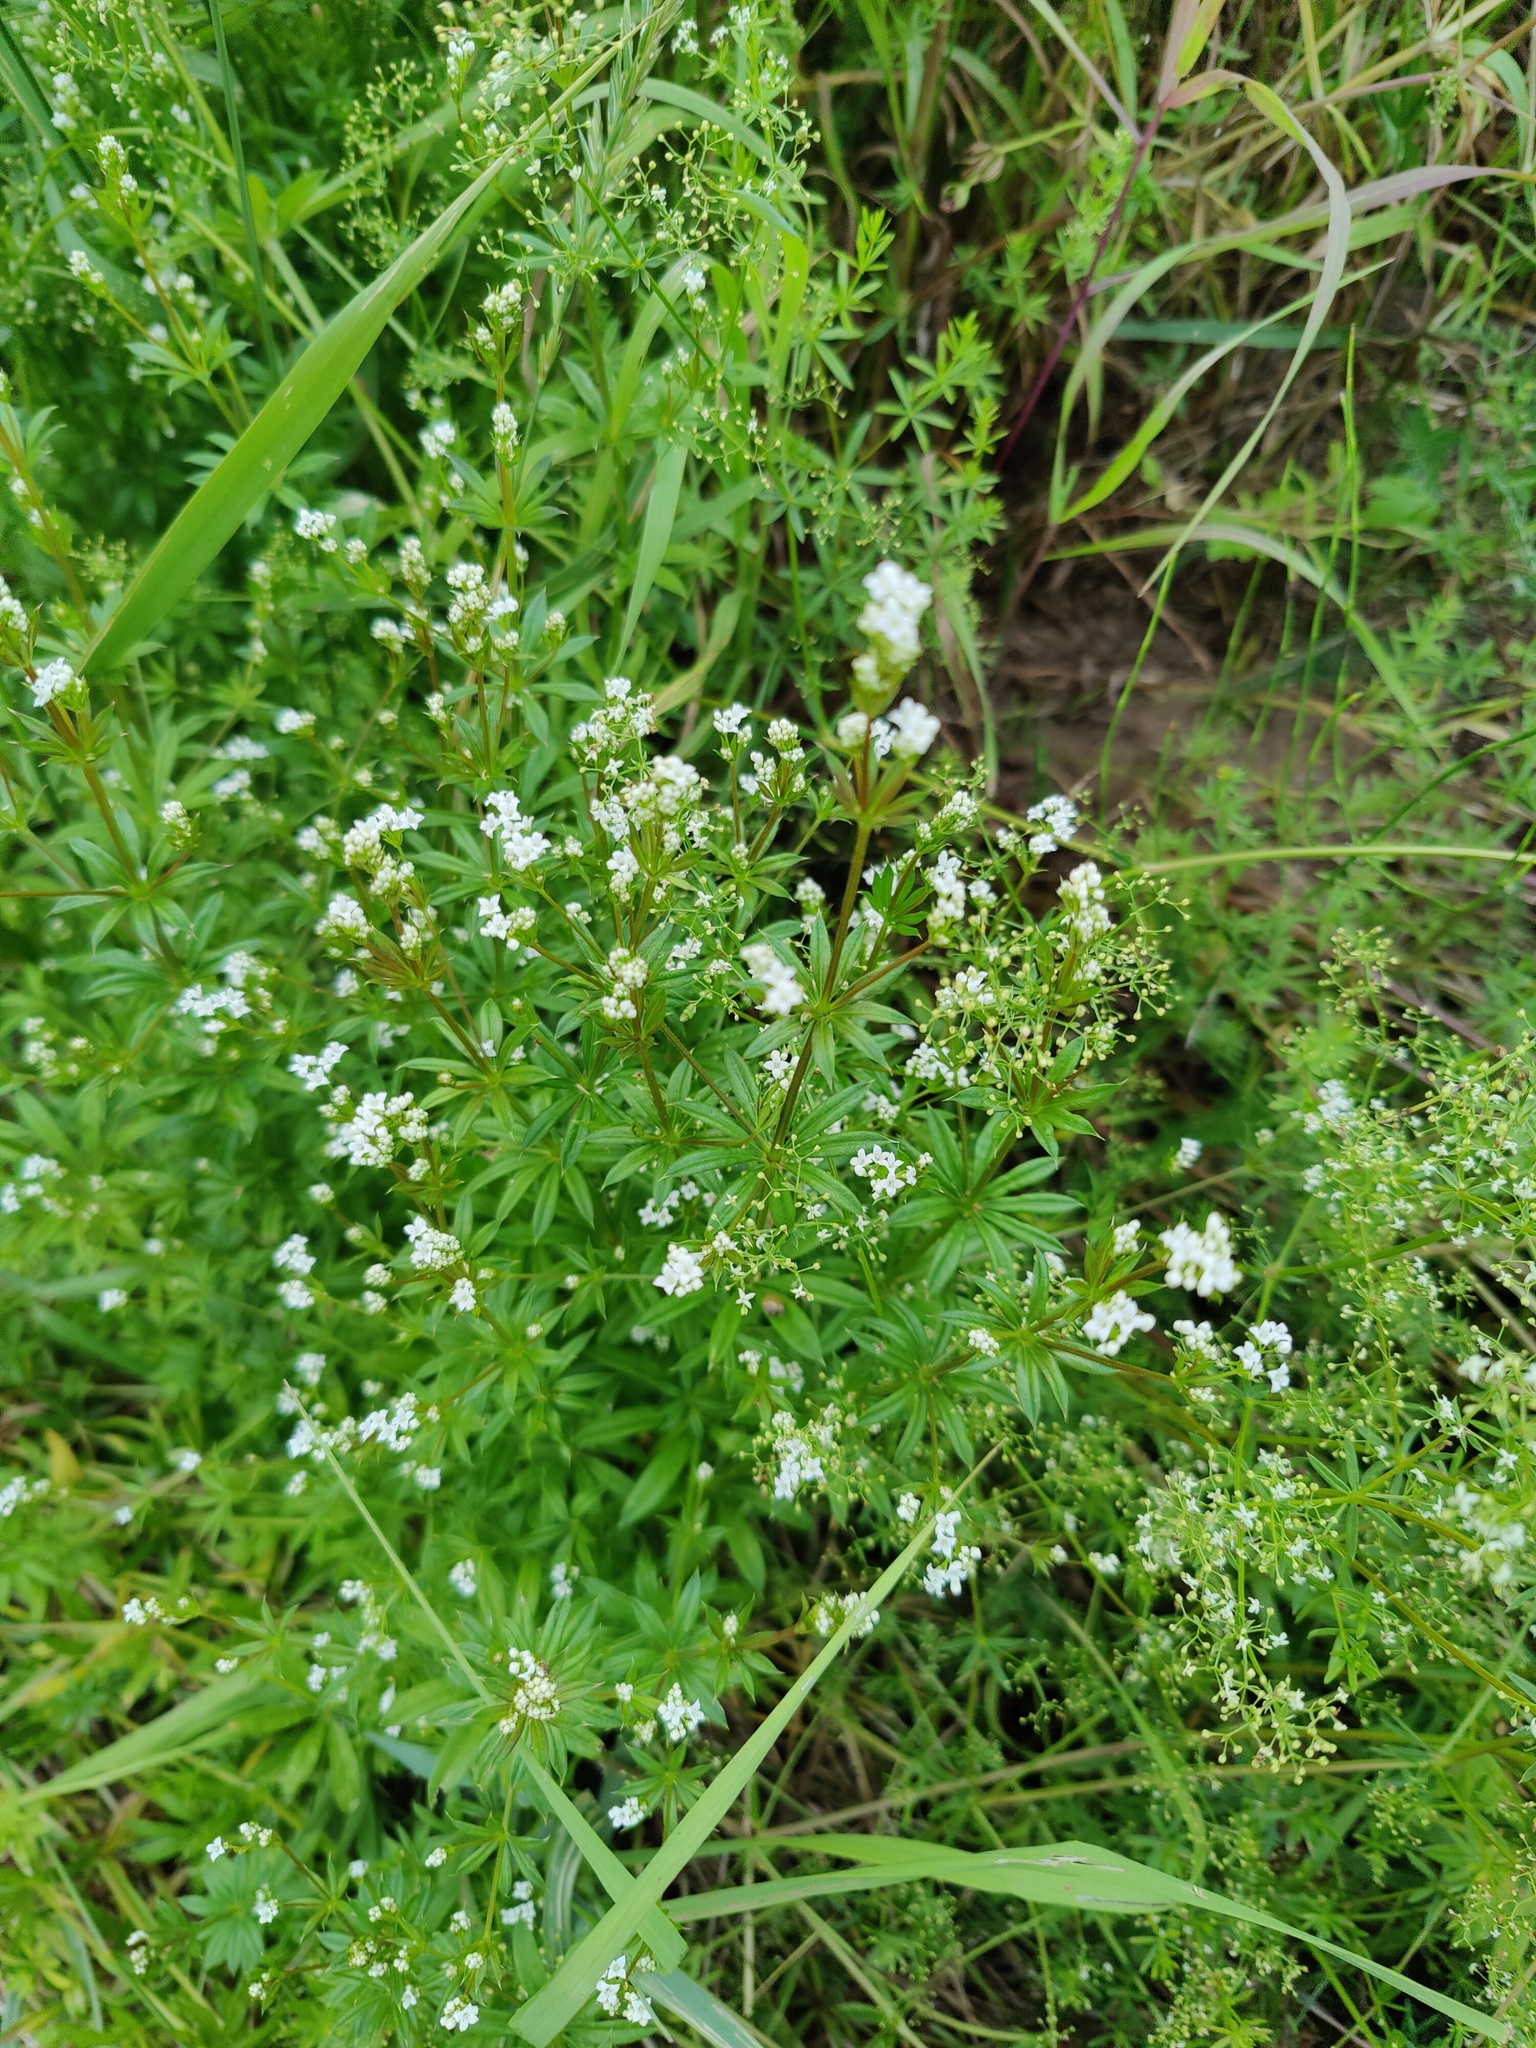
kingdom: Plantae
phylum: Tracheophyta
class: Magnoliopsida
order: Gentianales
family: Rubiaceae
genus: Galium
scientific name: Galium rivale
